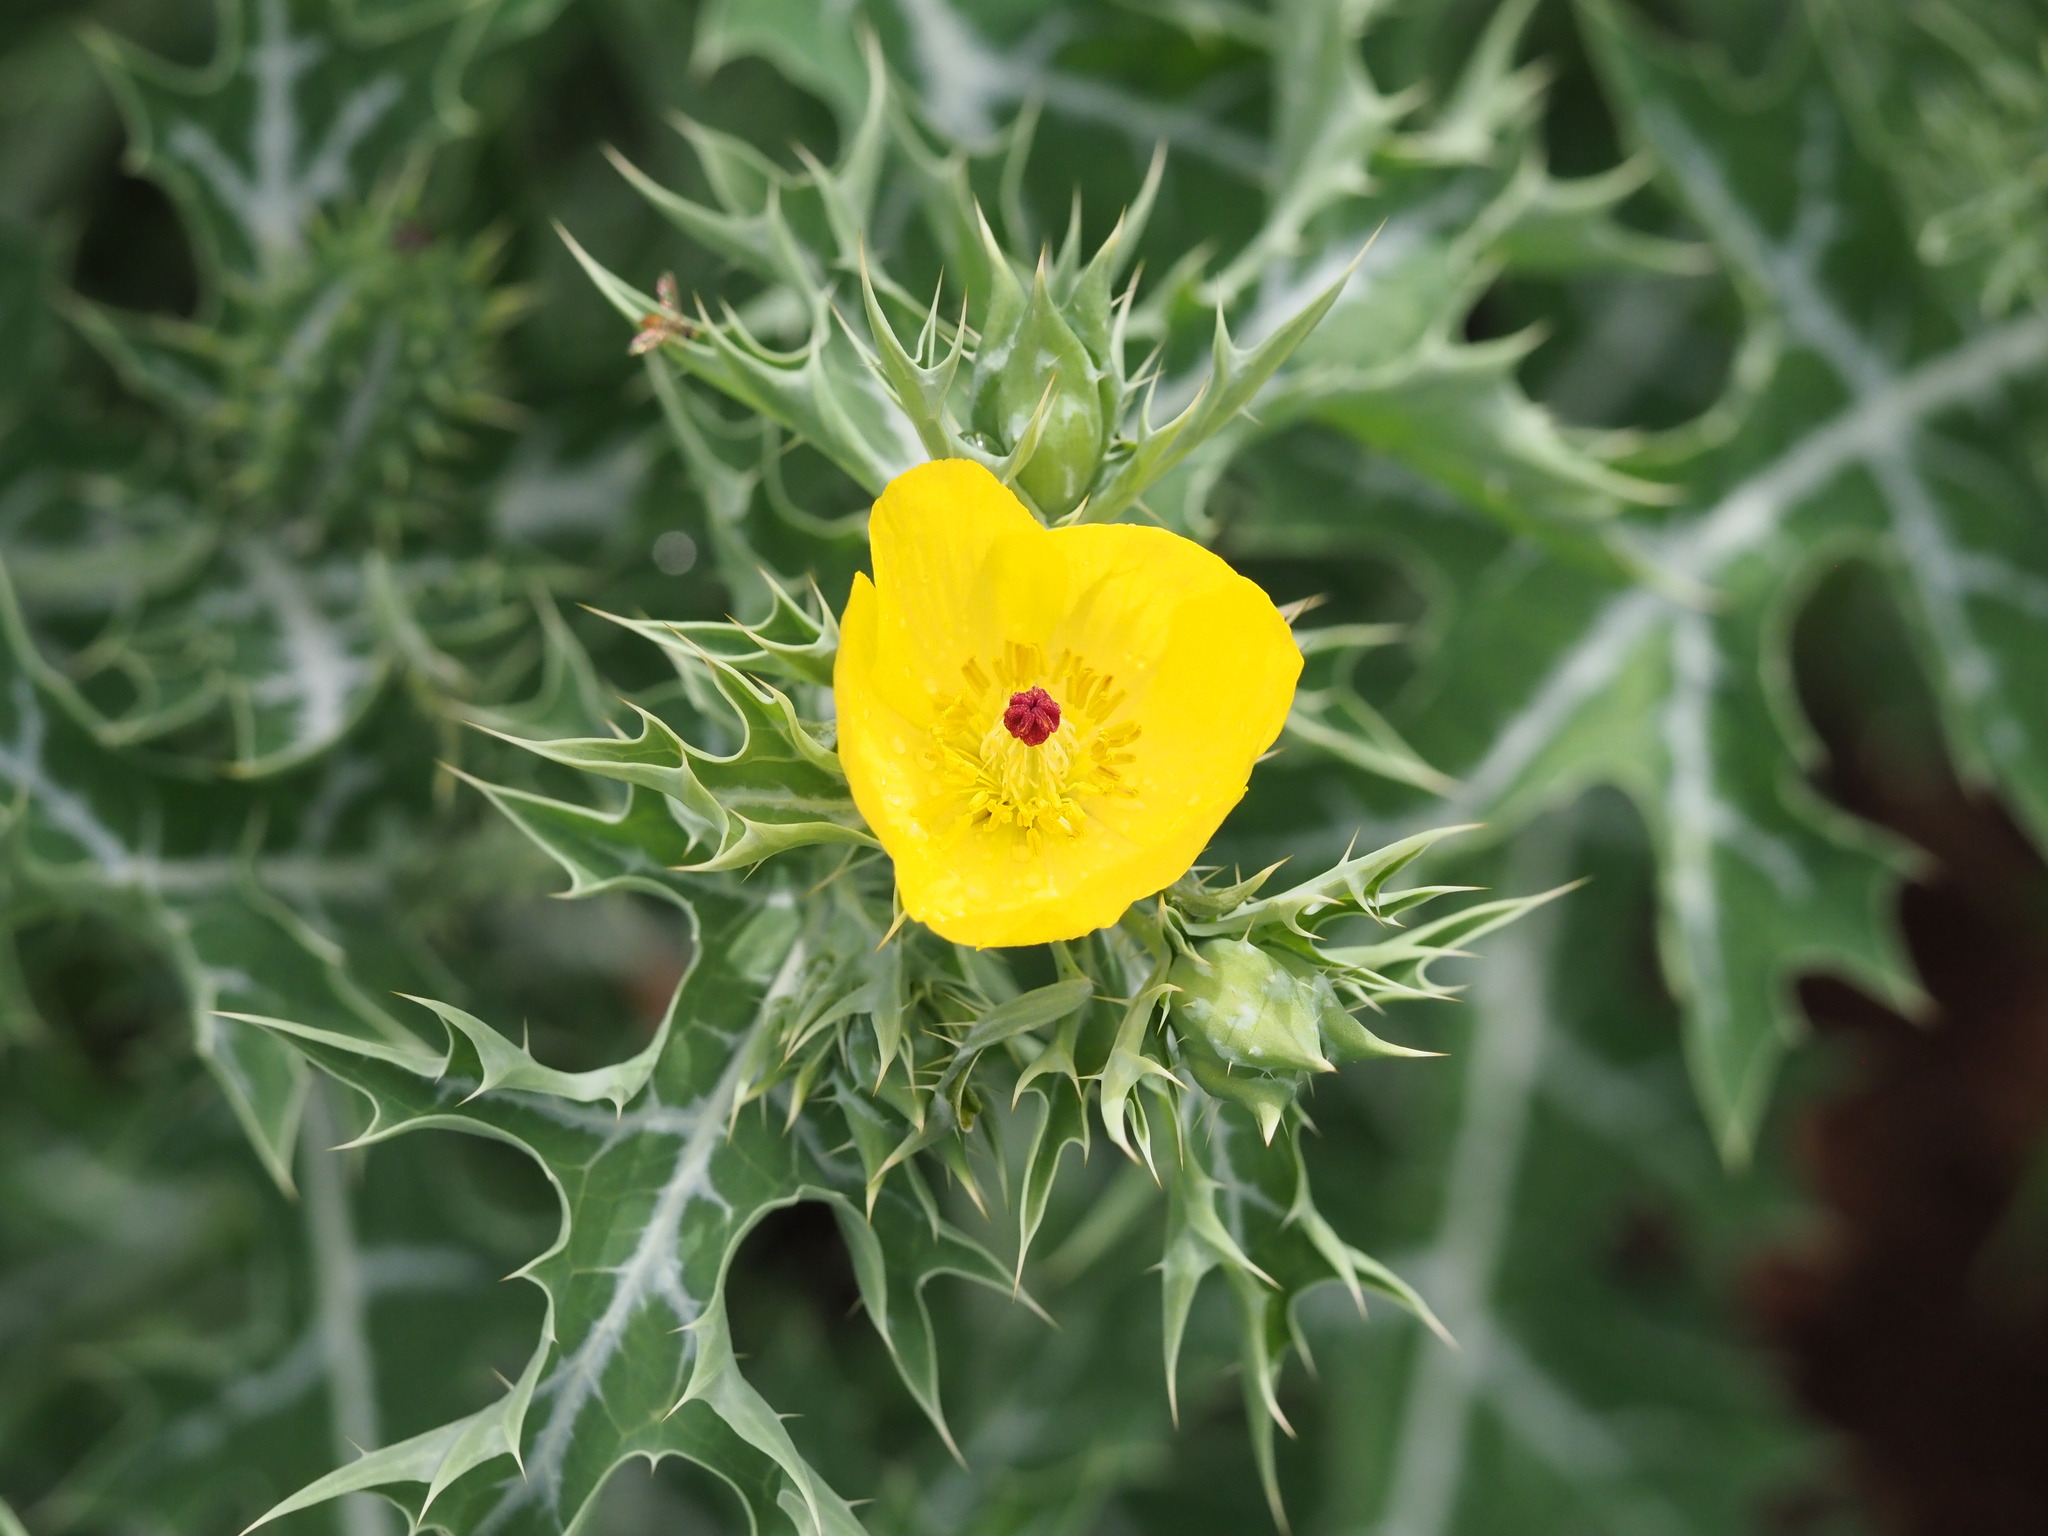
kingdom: Plantae
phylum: Tracheophyta
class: Magnoliopsida
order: Ranunculales
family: Papaveraceae
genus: Argemone
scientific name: Argemone mexicana
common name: Mexican poppy
